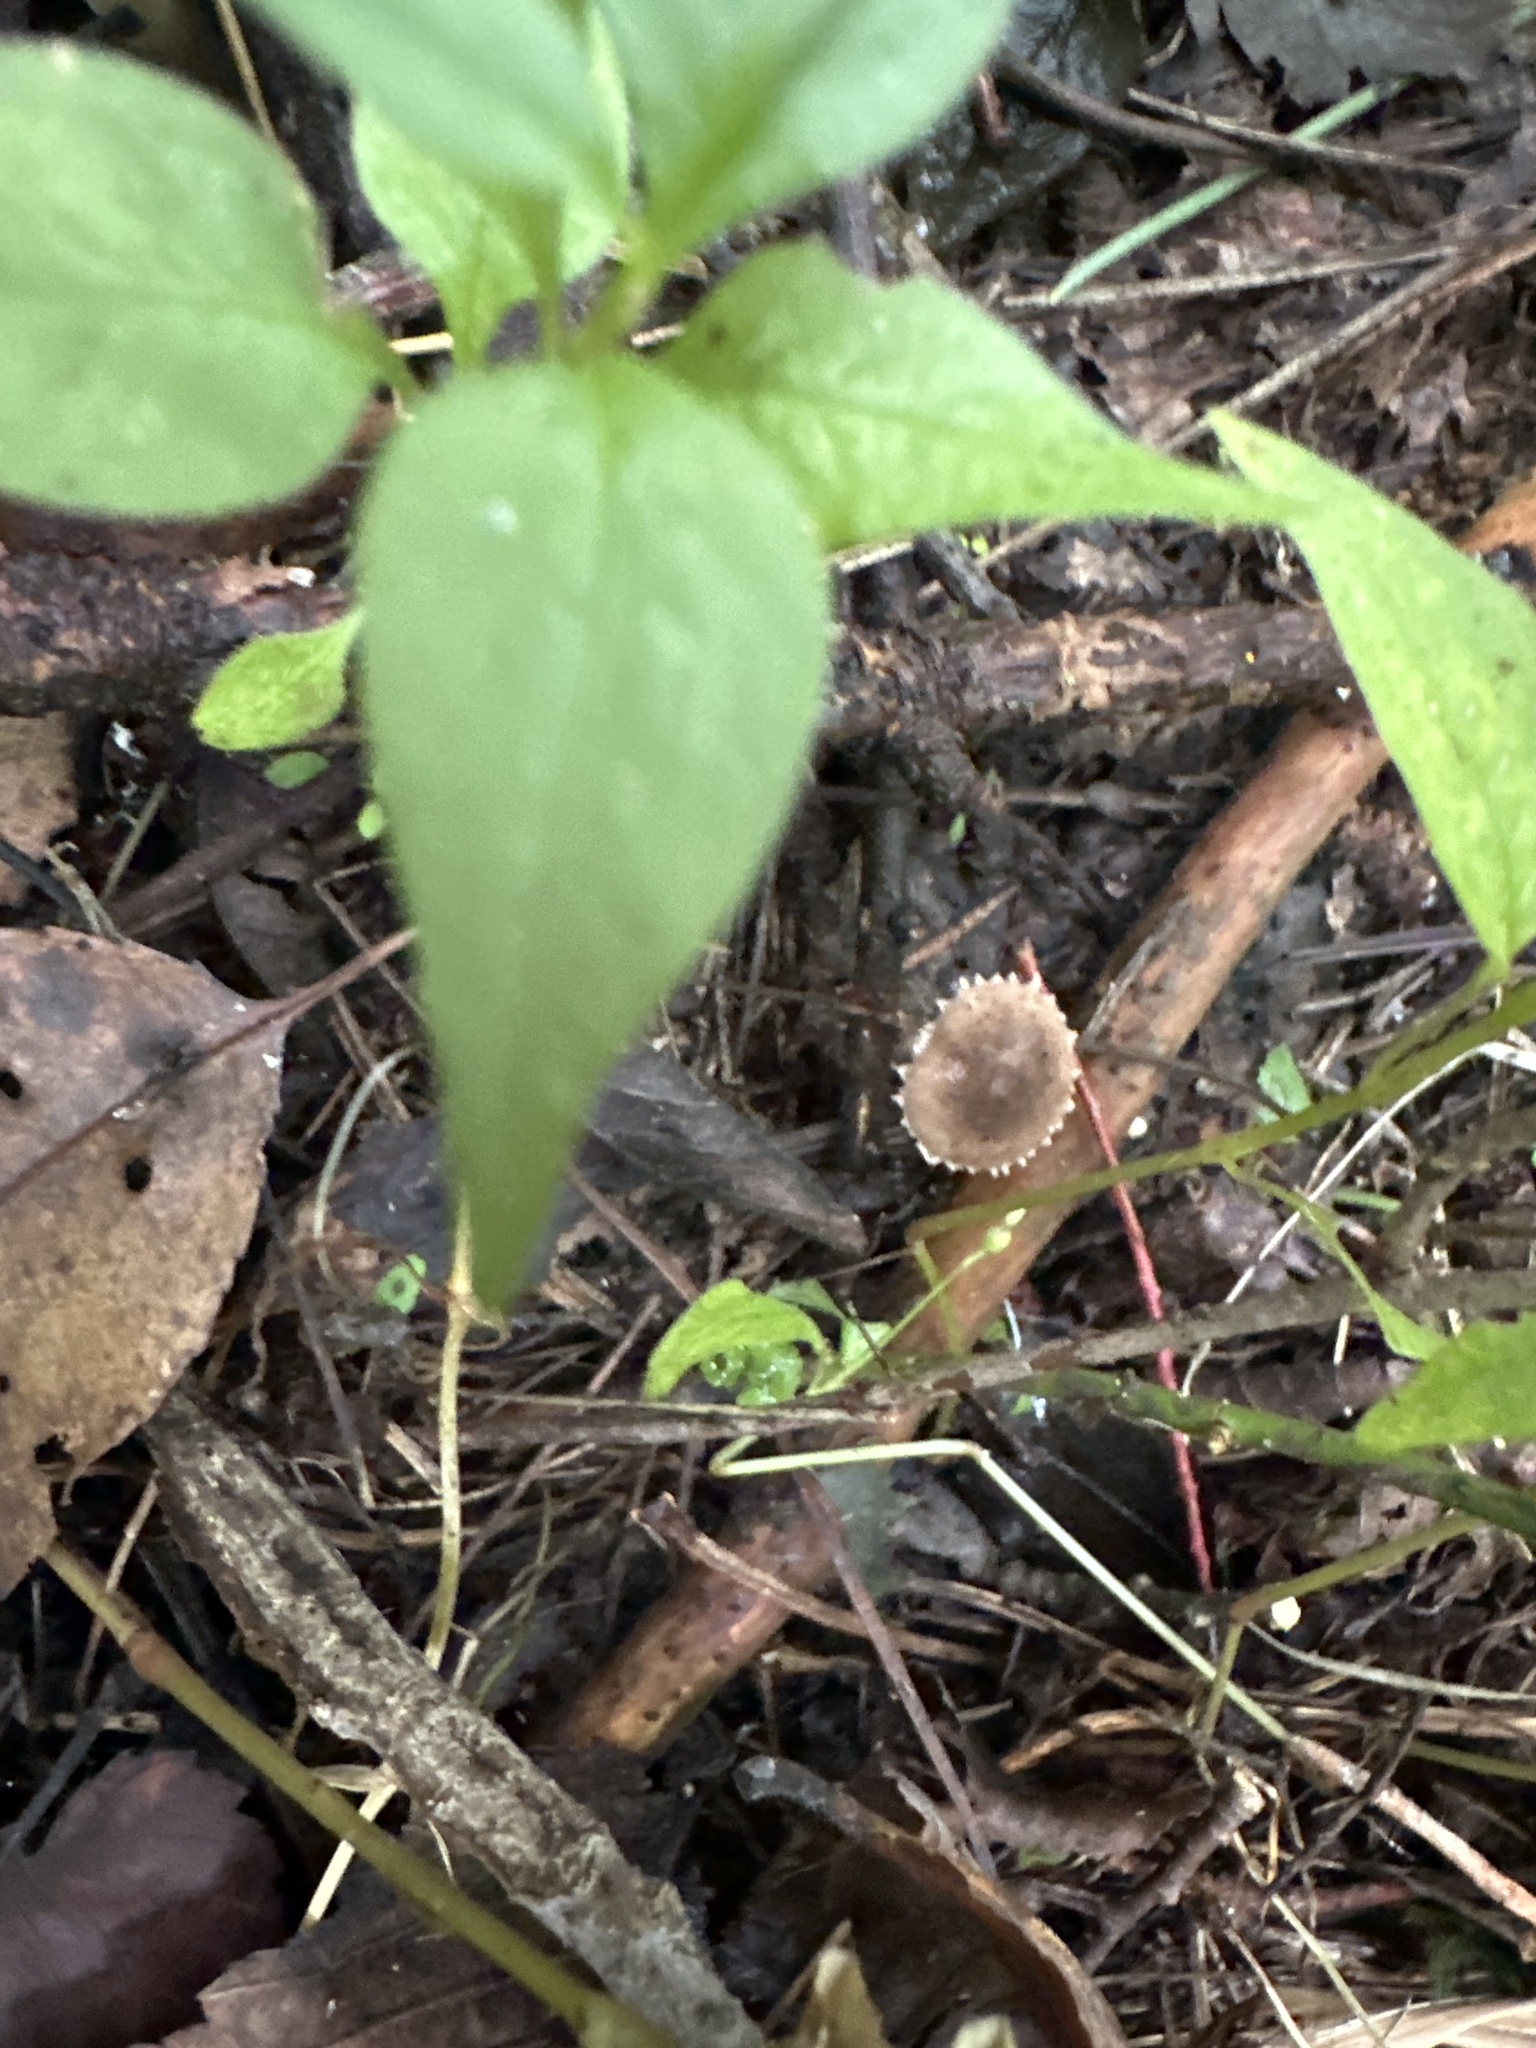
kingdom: Fungi
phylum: Basidiomycota
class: Agaricomycetes
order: Agaricales
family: Agaricaceae
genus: Melanophyllum
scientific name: Melanophyllum haematospermum
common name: Redspored dapperling
